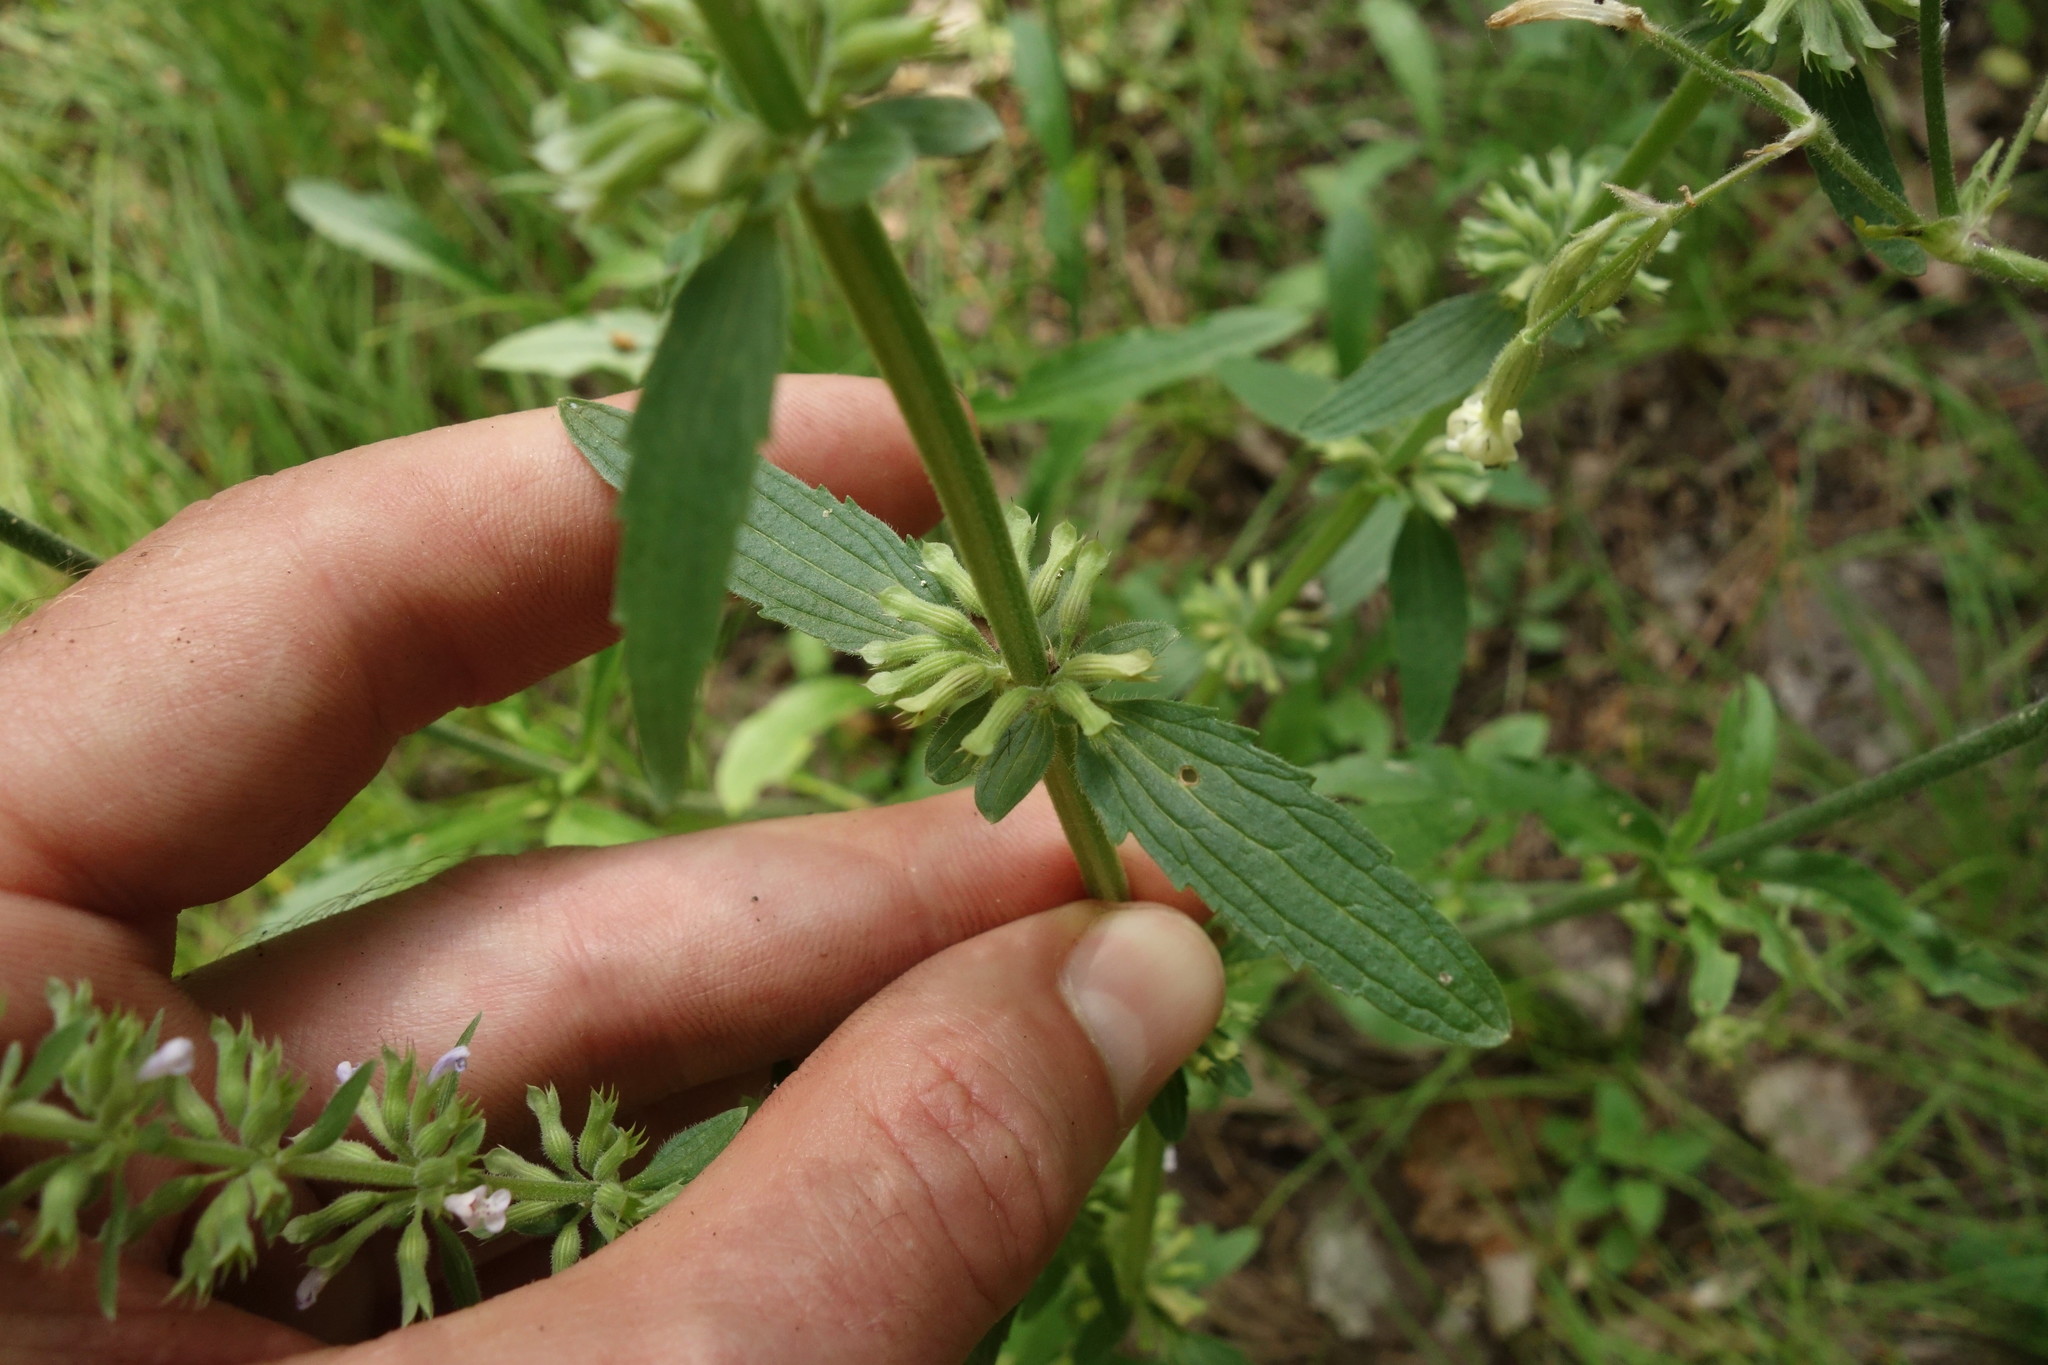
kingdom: Plantae
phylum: Tracheophyta
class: Magnoliopsida
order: Lamiales
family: Lamiaceae
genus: Dracocephalum
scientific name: Dracocephalum thymiflorum
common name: Thymeleaf dragonhead
